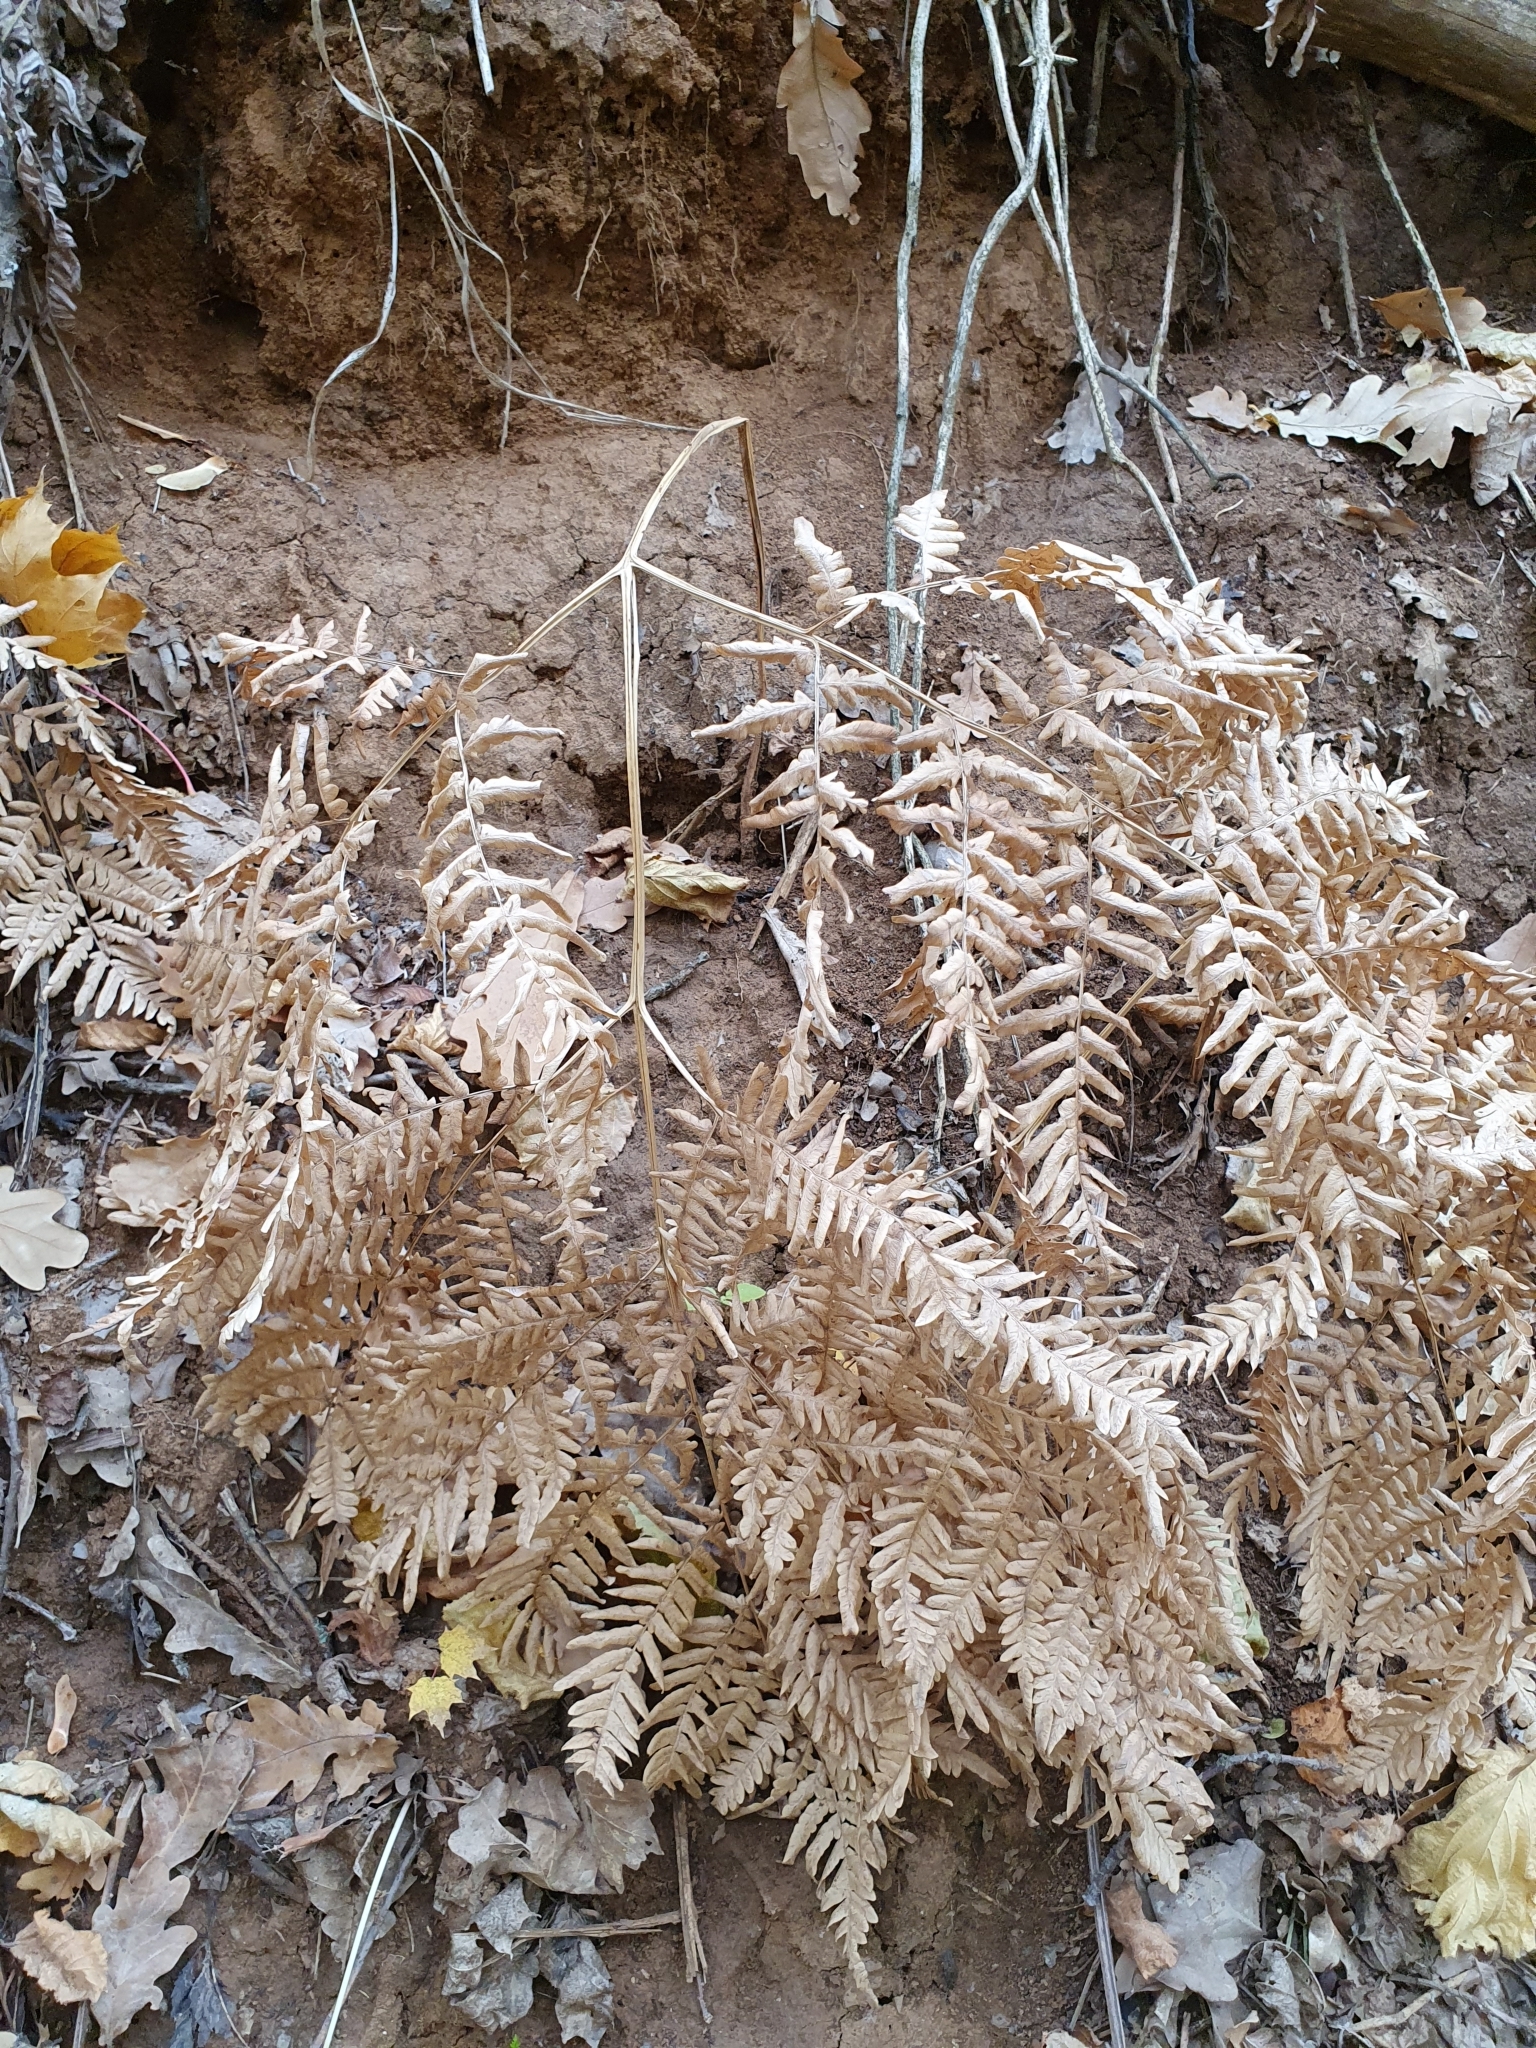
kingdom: Plantae
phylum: Tracheophyta
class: Polypodiopsida
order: Polypodiales
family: Dennstaedtiaceae
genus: Pteridium
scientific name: Pteridium aquilinum
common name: Bracken
